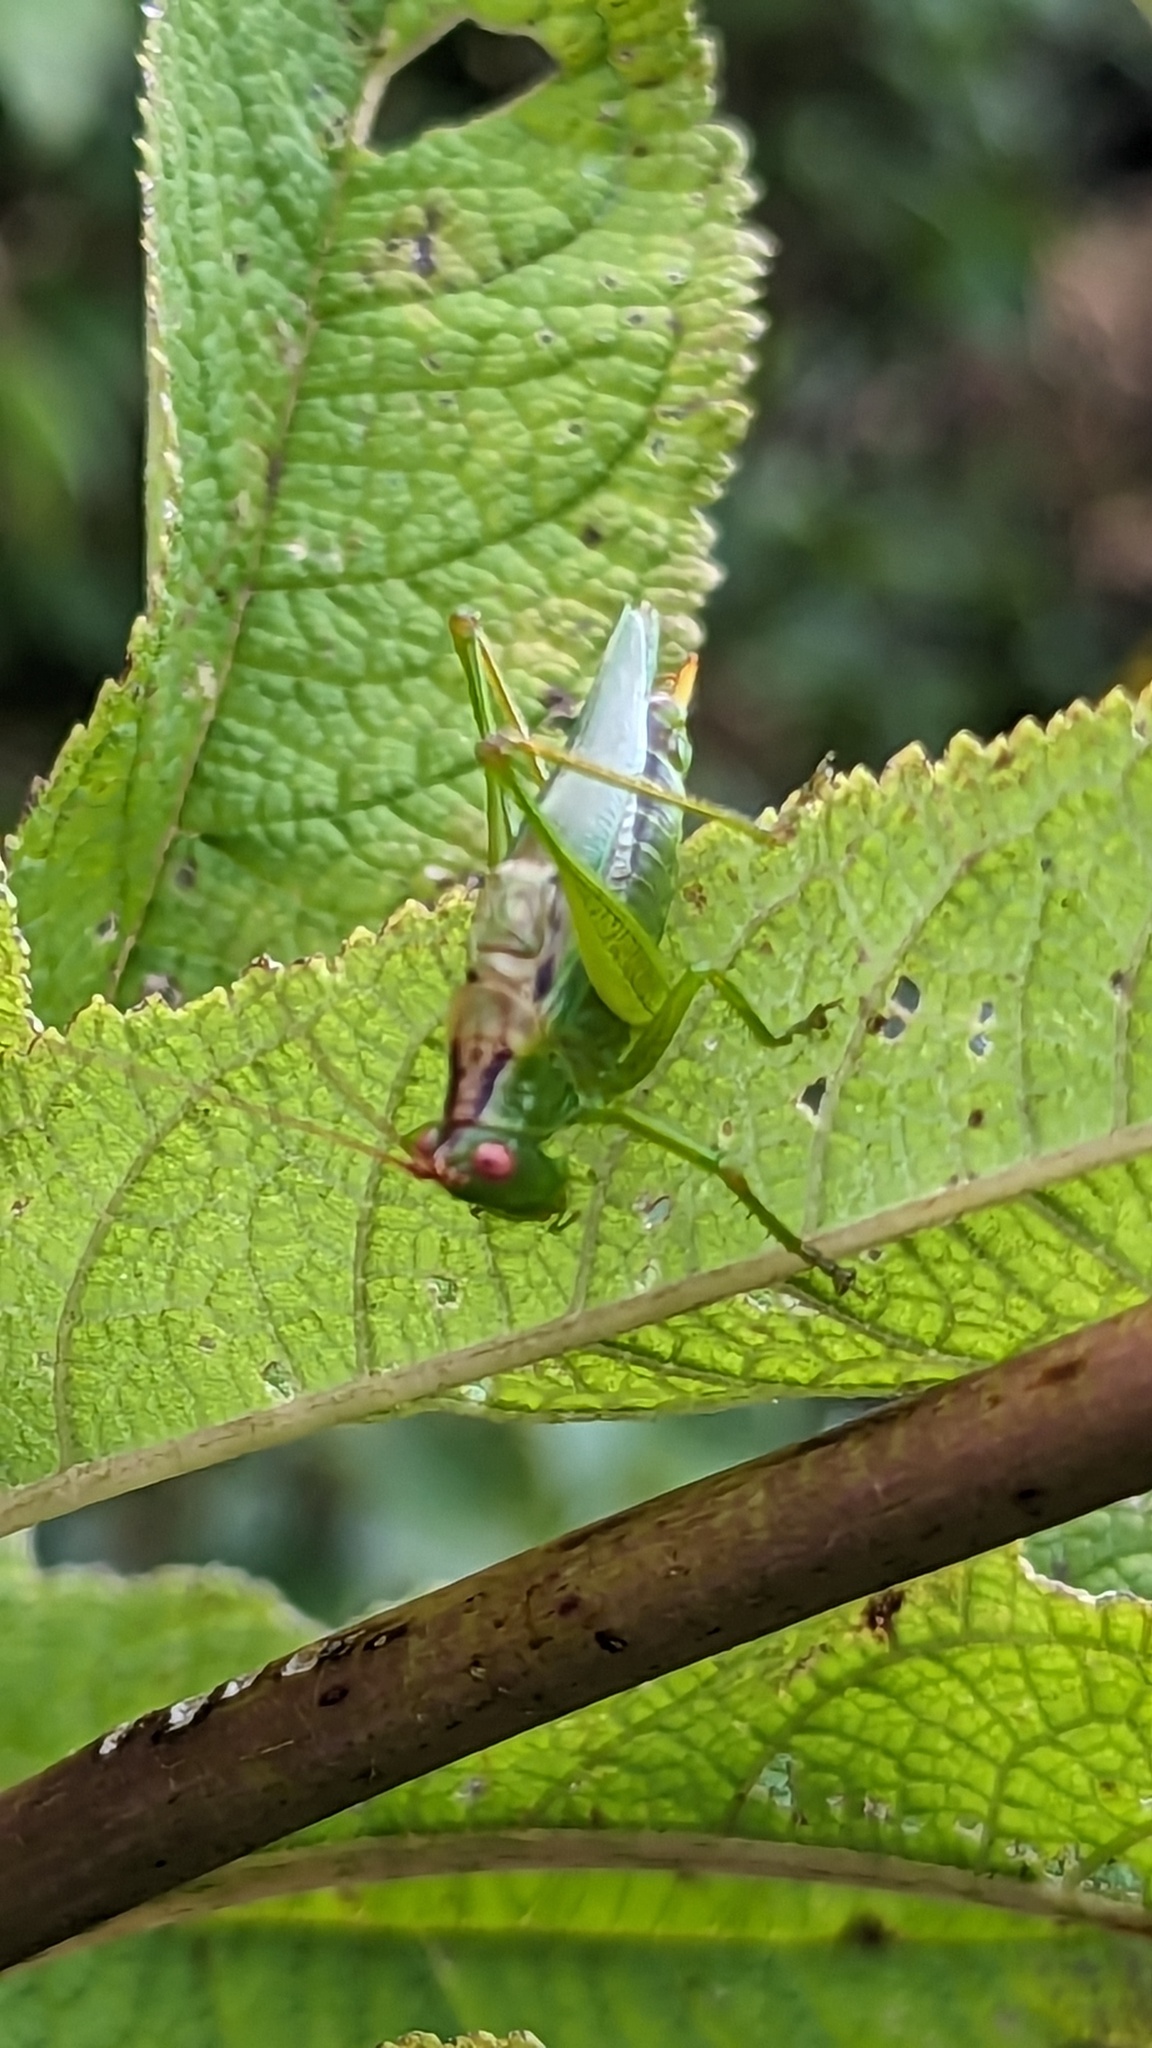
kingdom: Animalia
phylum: Arthropoda
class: Insecta
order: Orthoptera
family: Tettigoniidae
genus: Orchelimum
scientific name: Orchelimum silvaticum
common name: Long-spurred meadow katydid
